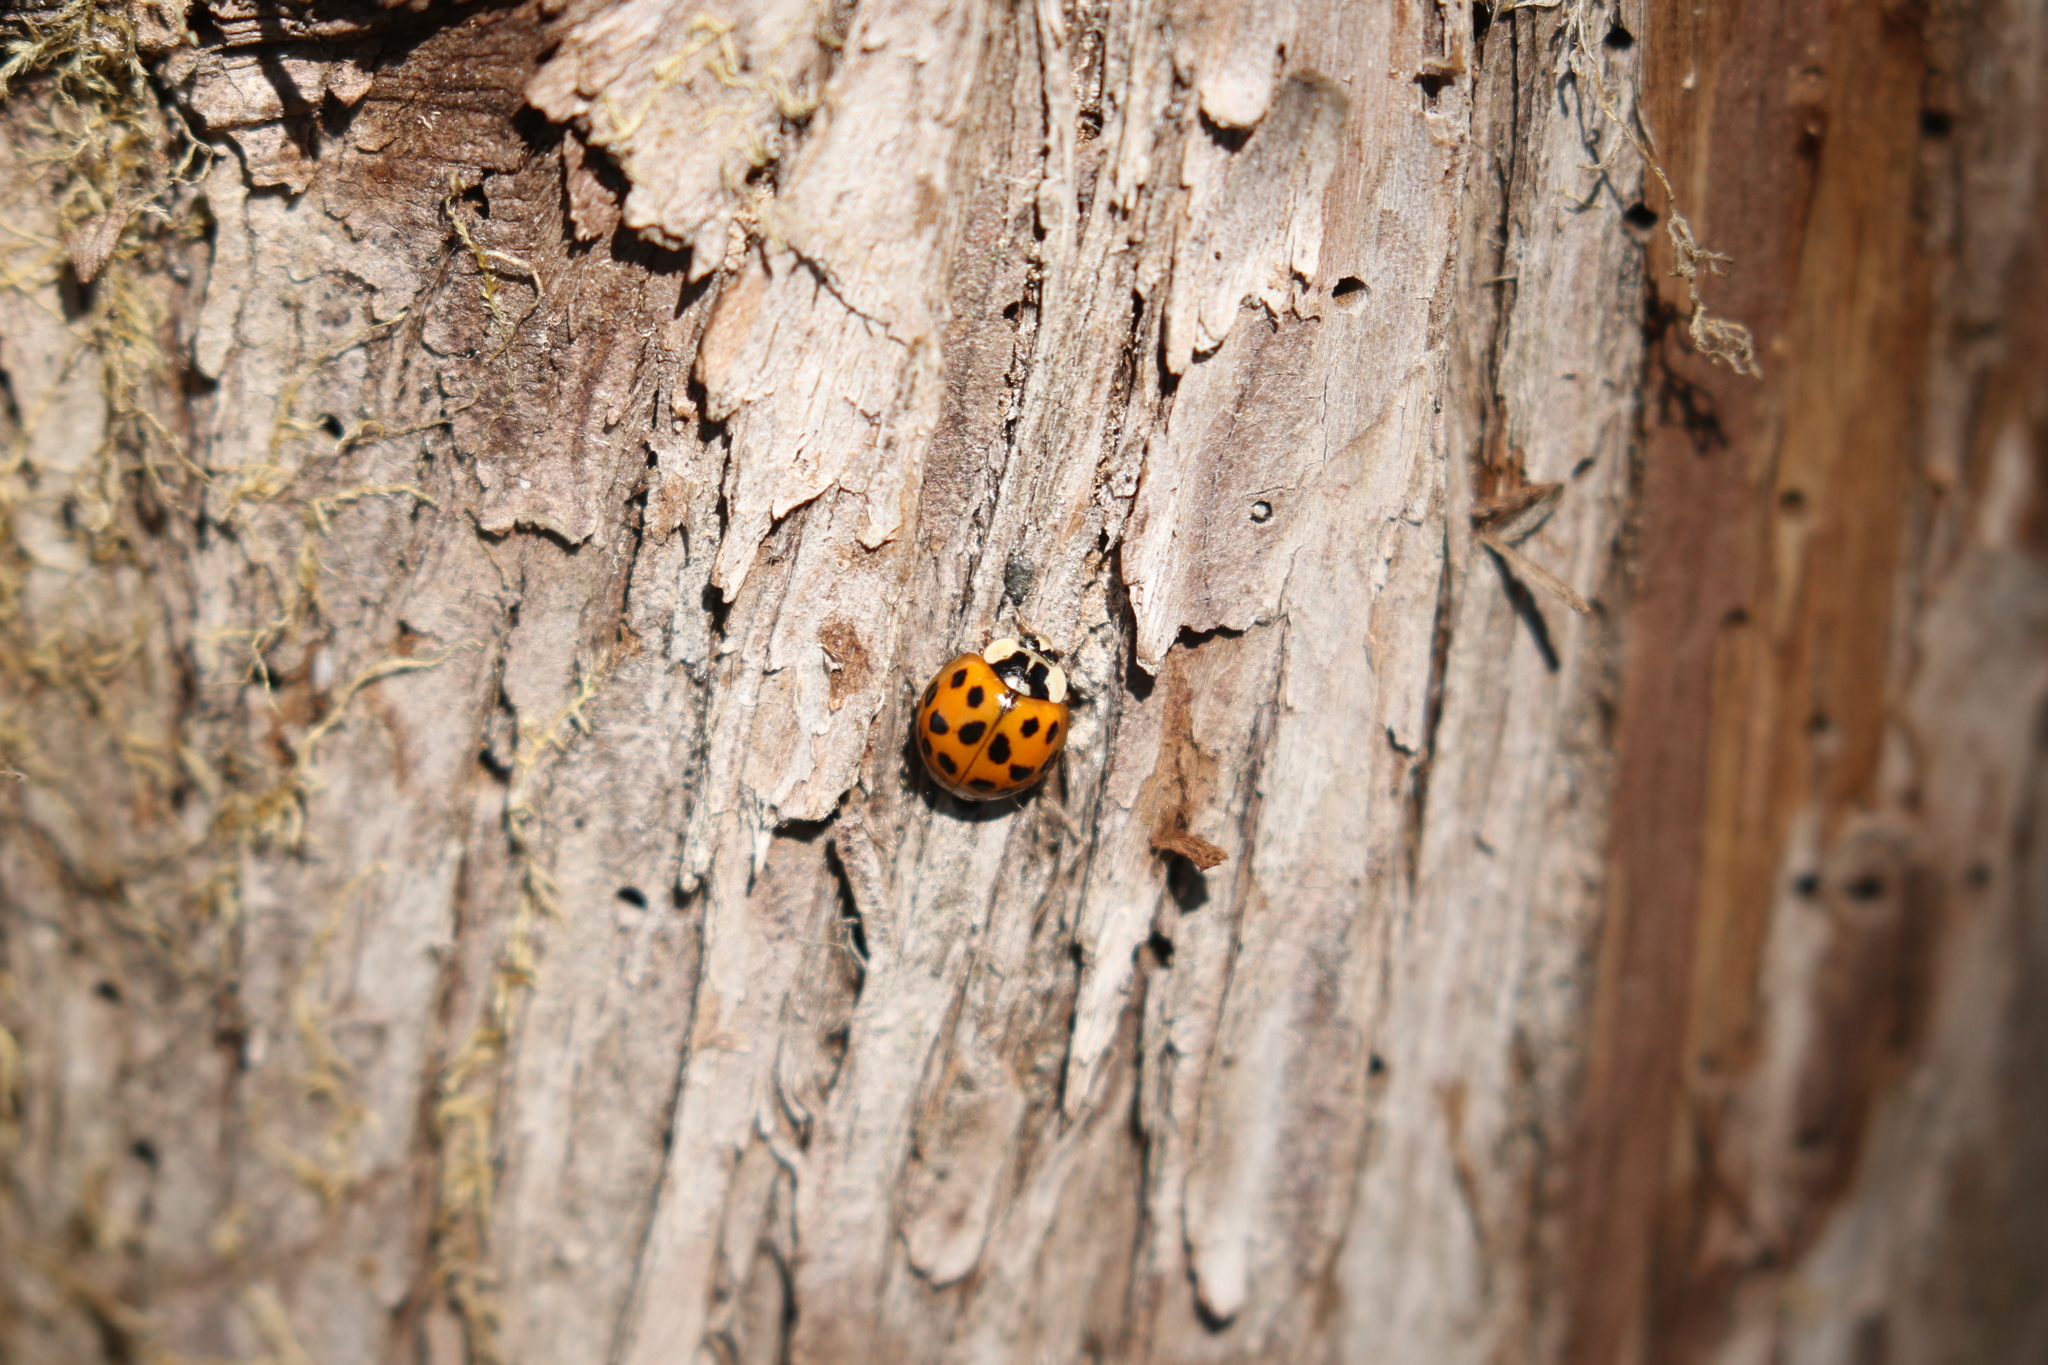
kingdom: Animalia
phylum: Arthropoda
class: Insecta
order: Coleoptera
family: Coccinellidae
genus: Harmonia
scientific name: Harmonia axyridis
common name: Harlequin ladybird
